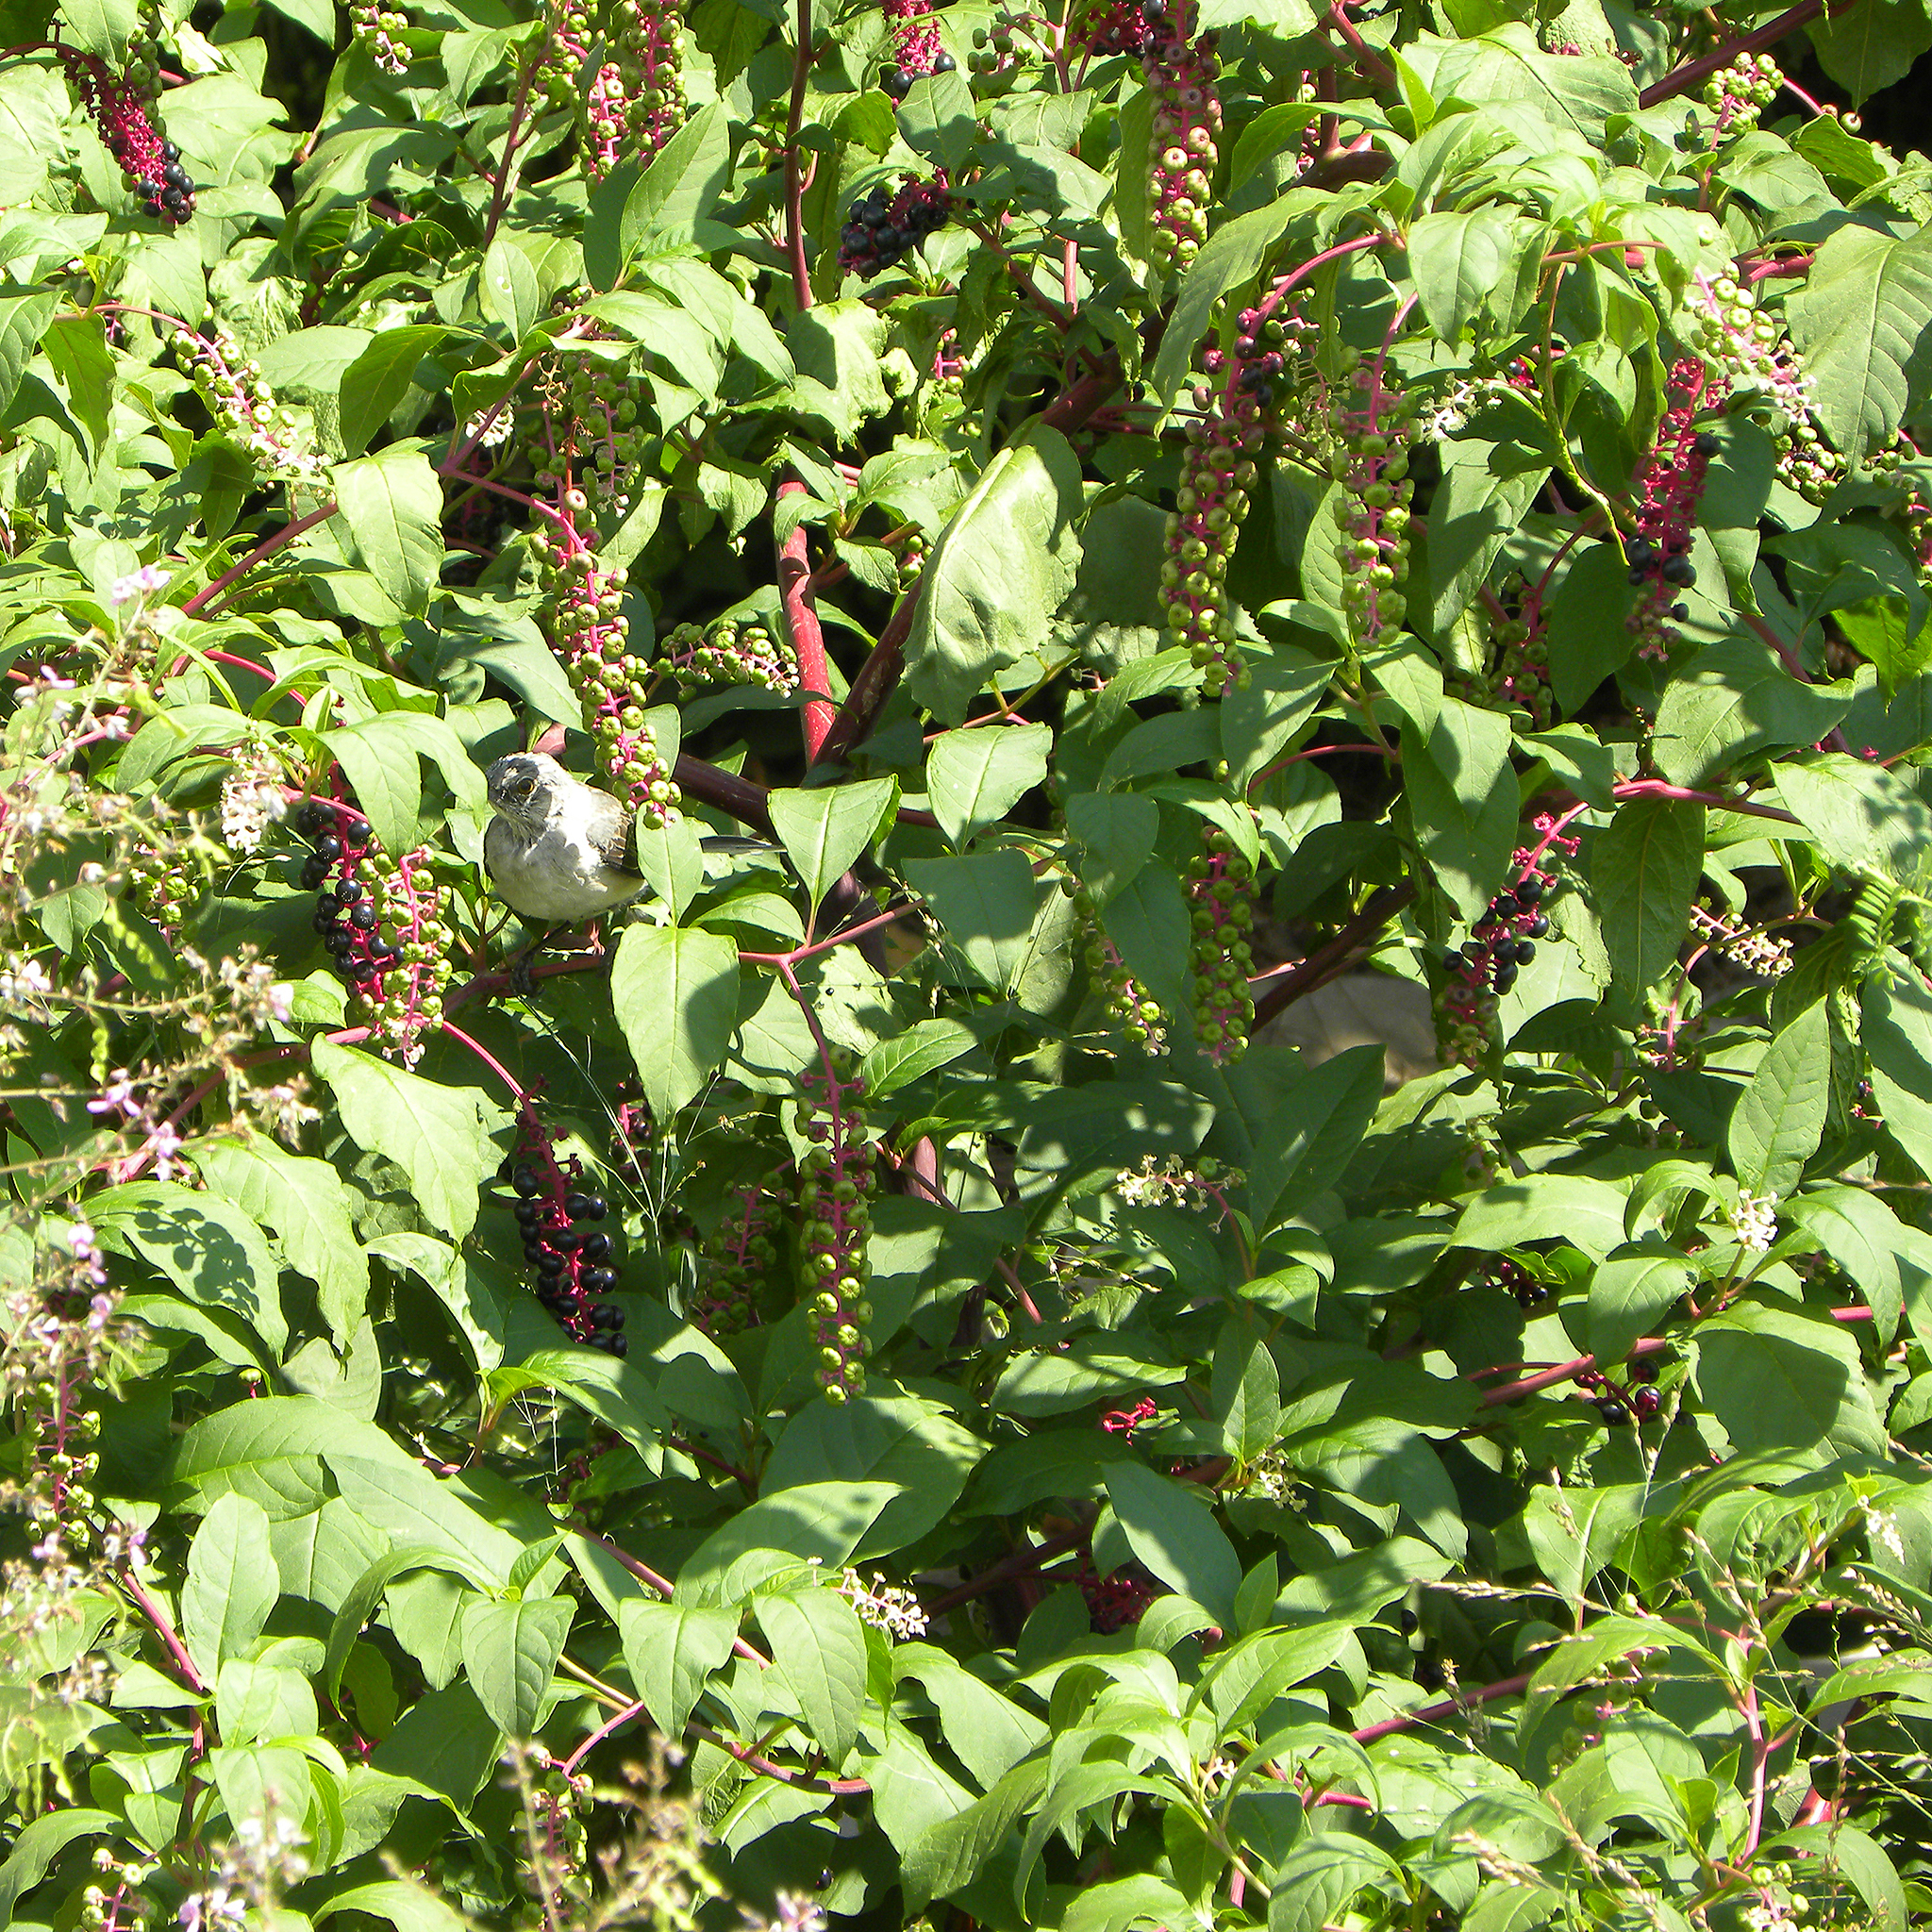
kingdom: Plantae
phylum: Tracheophyta
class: Magnoliopsida
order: Caryophyllales
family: Phytolaccaceae
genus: Phytolacca
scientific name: Phytolacca americana
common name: American pokeweed
